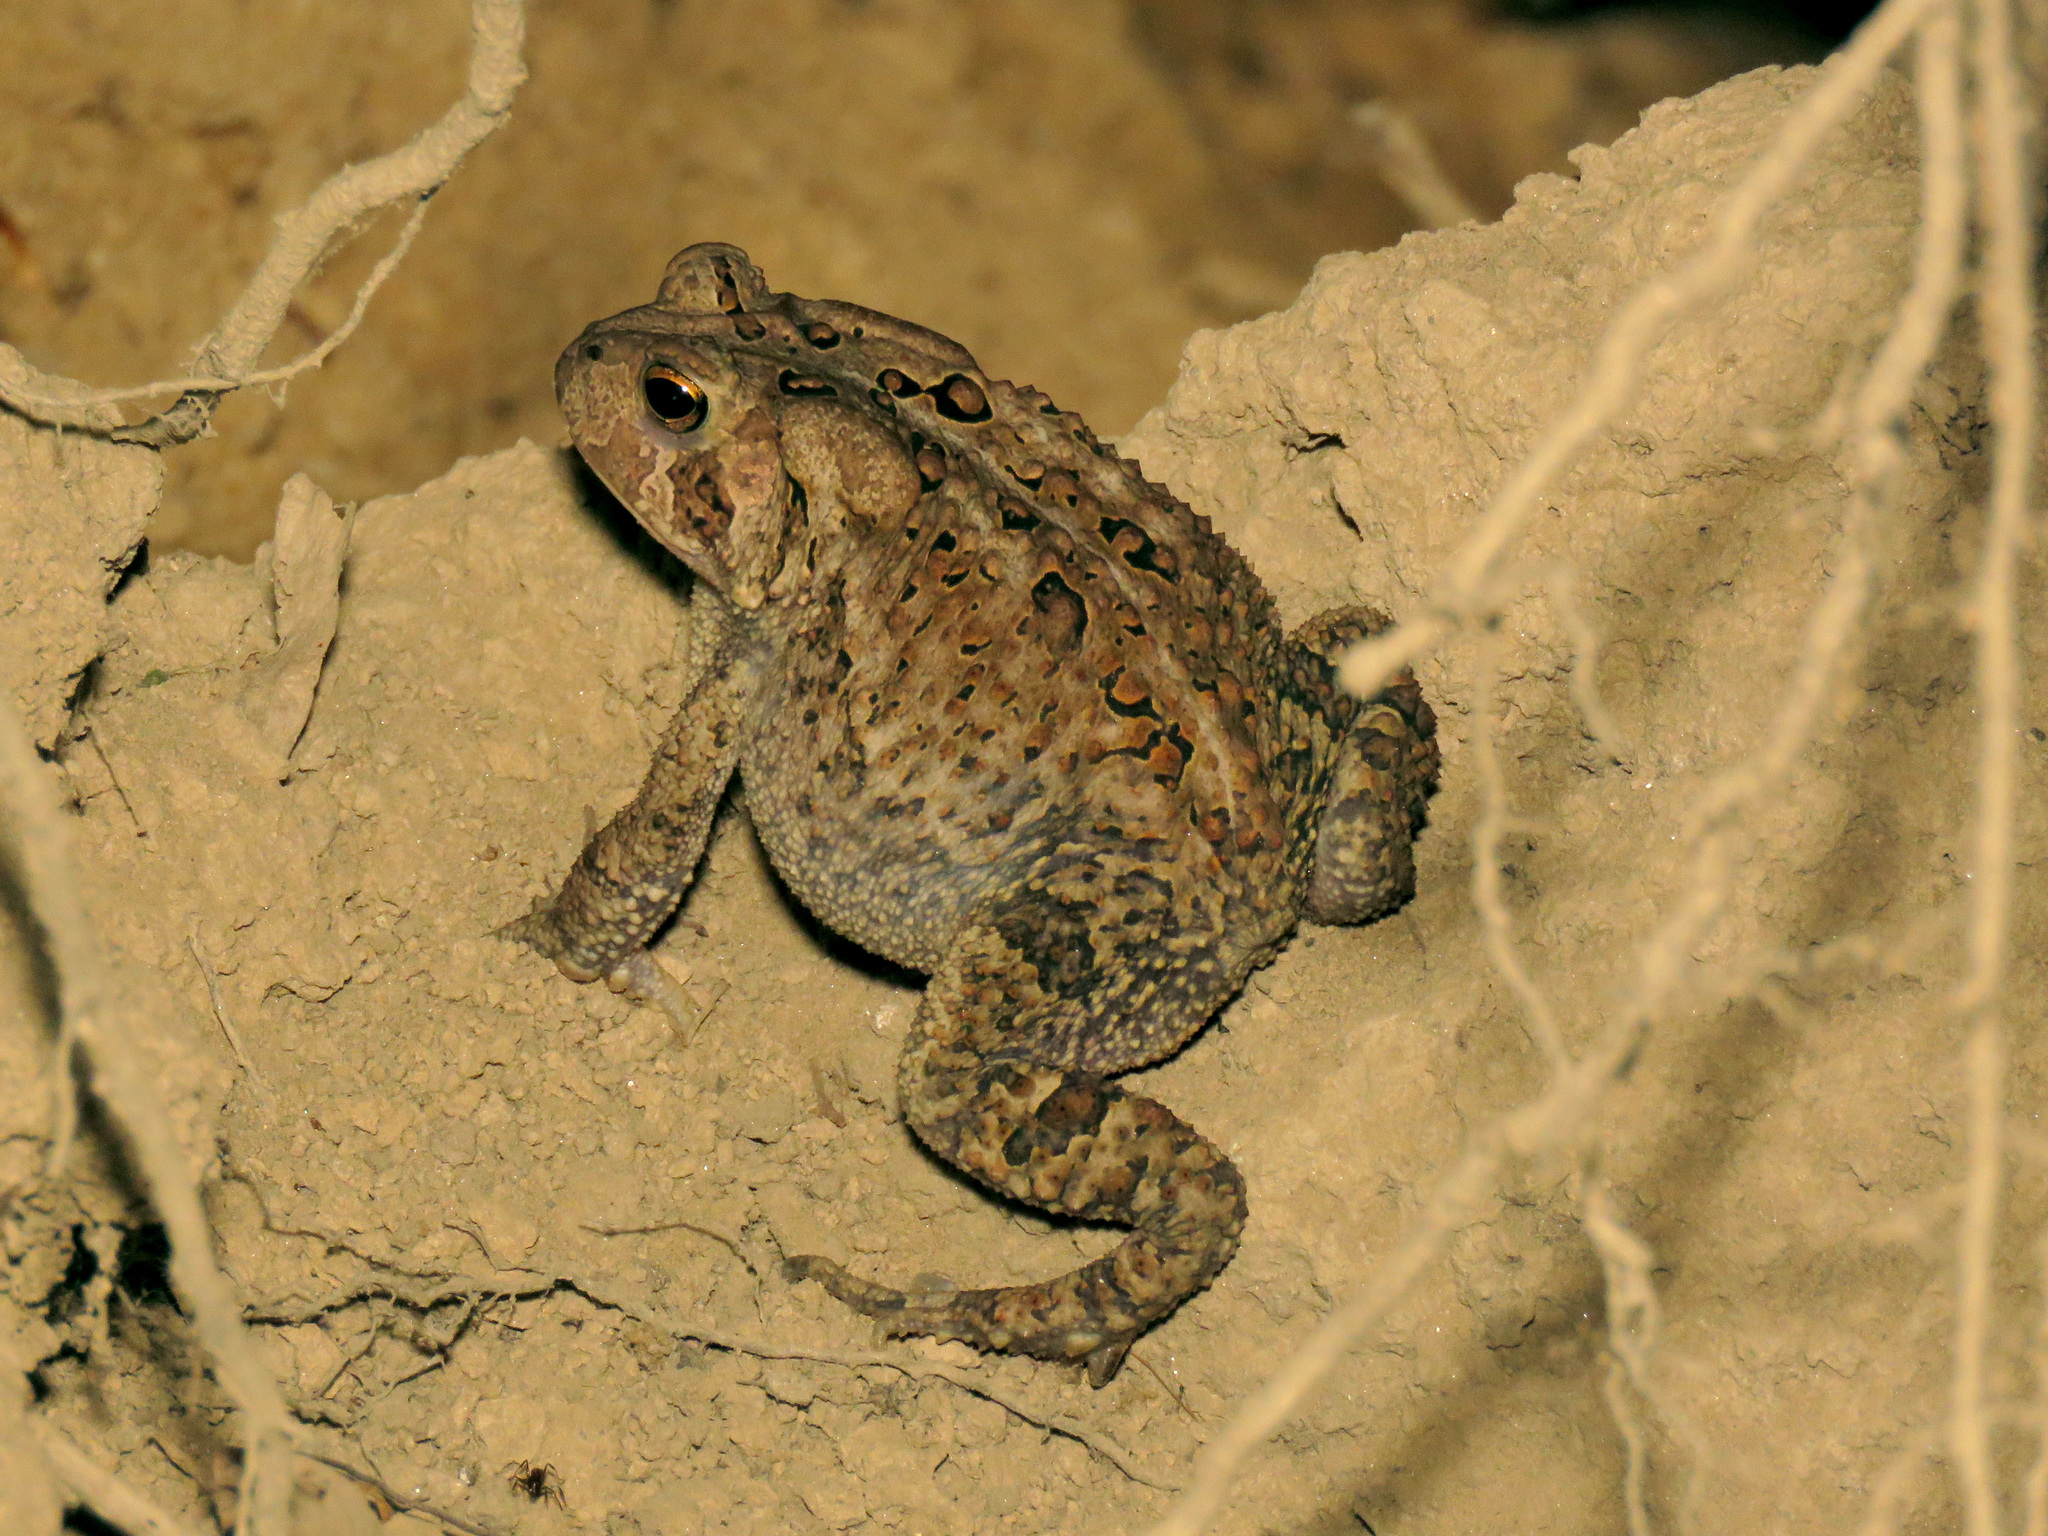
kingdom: Animalia
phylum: Chordata
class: Amphibia
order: Anura
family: Bufonidae
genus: Anaxyrus
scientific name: Anaxyrus americanus
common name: American toad
